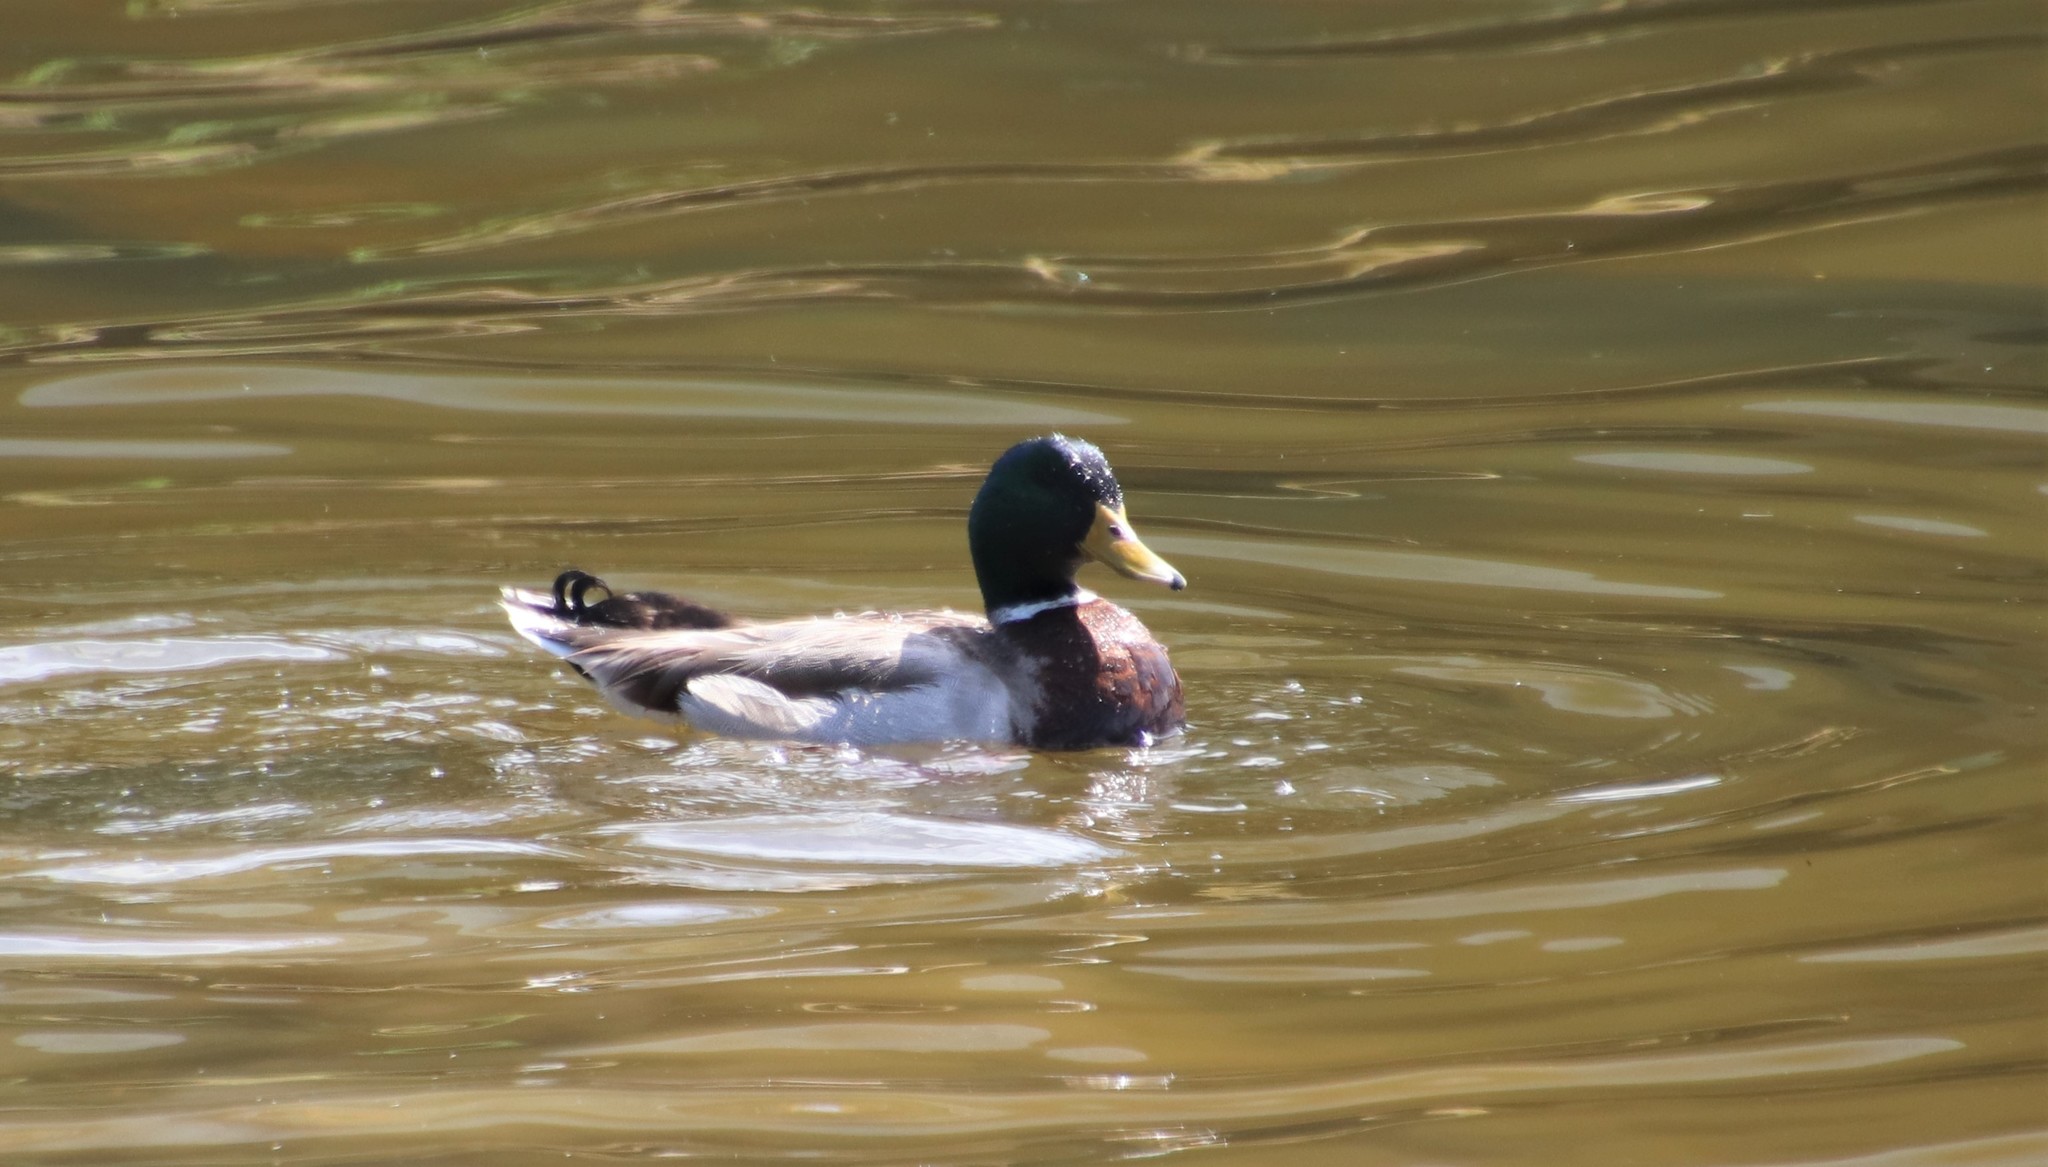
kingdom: Animalia
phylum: Chordata
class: Aves
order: Anseriformes
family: Anatidae
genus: Anas
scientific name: Anas platyrhynchos
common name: Mallard
